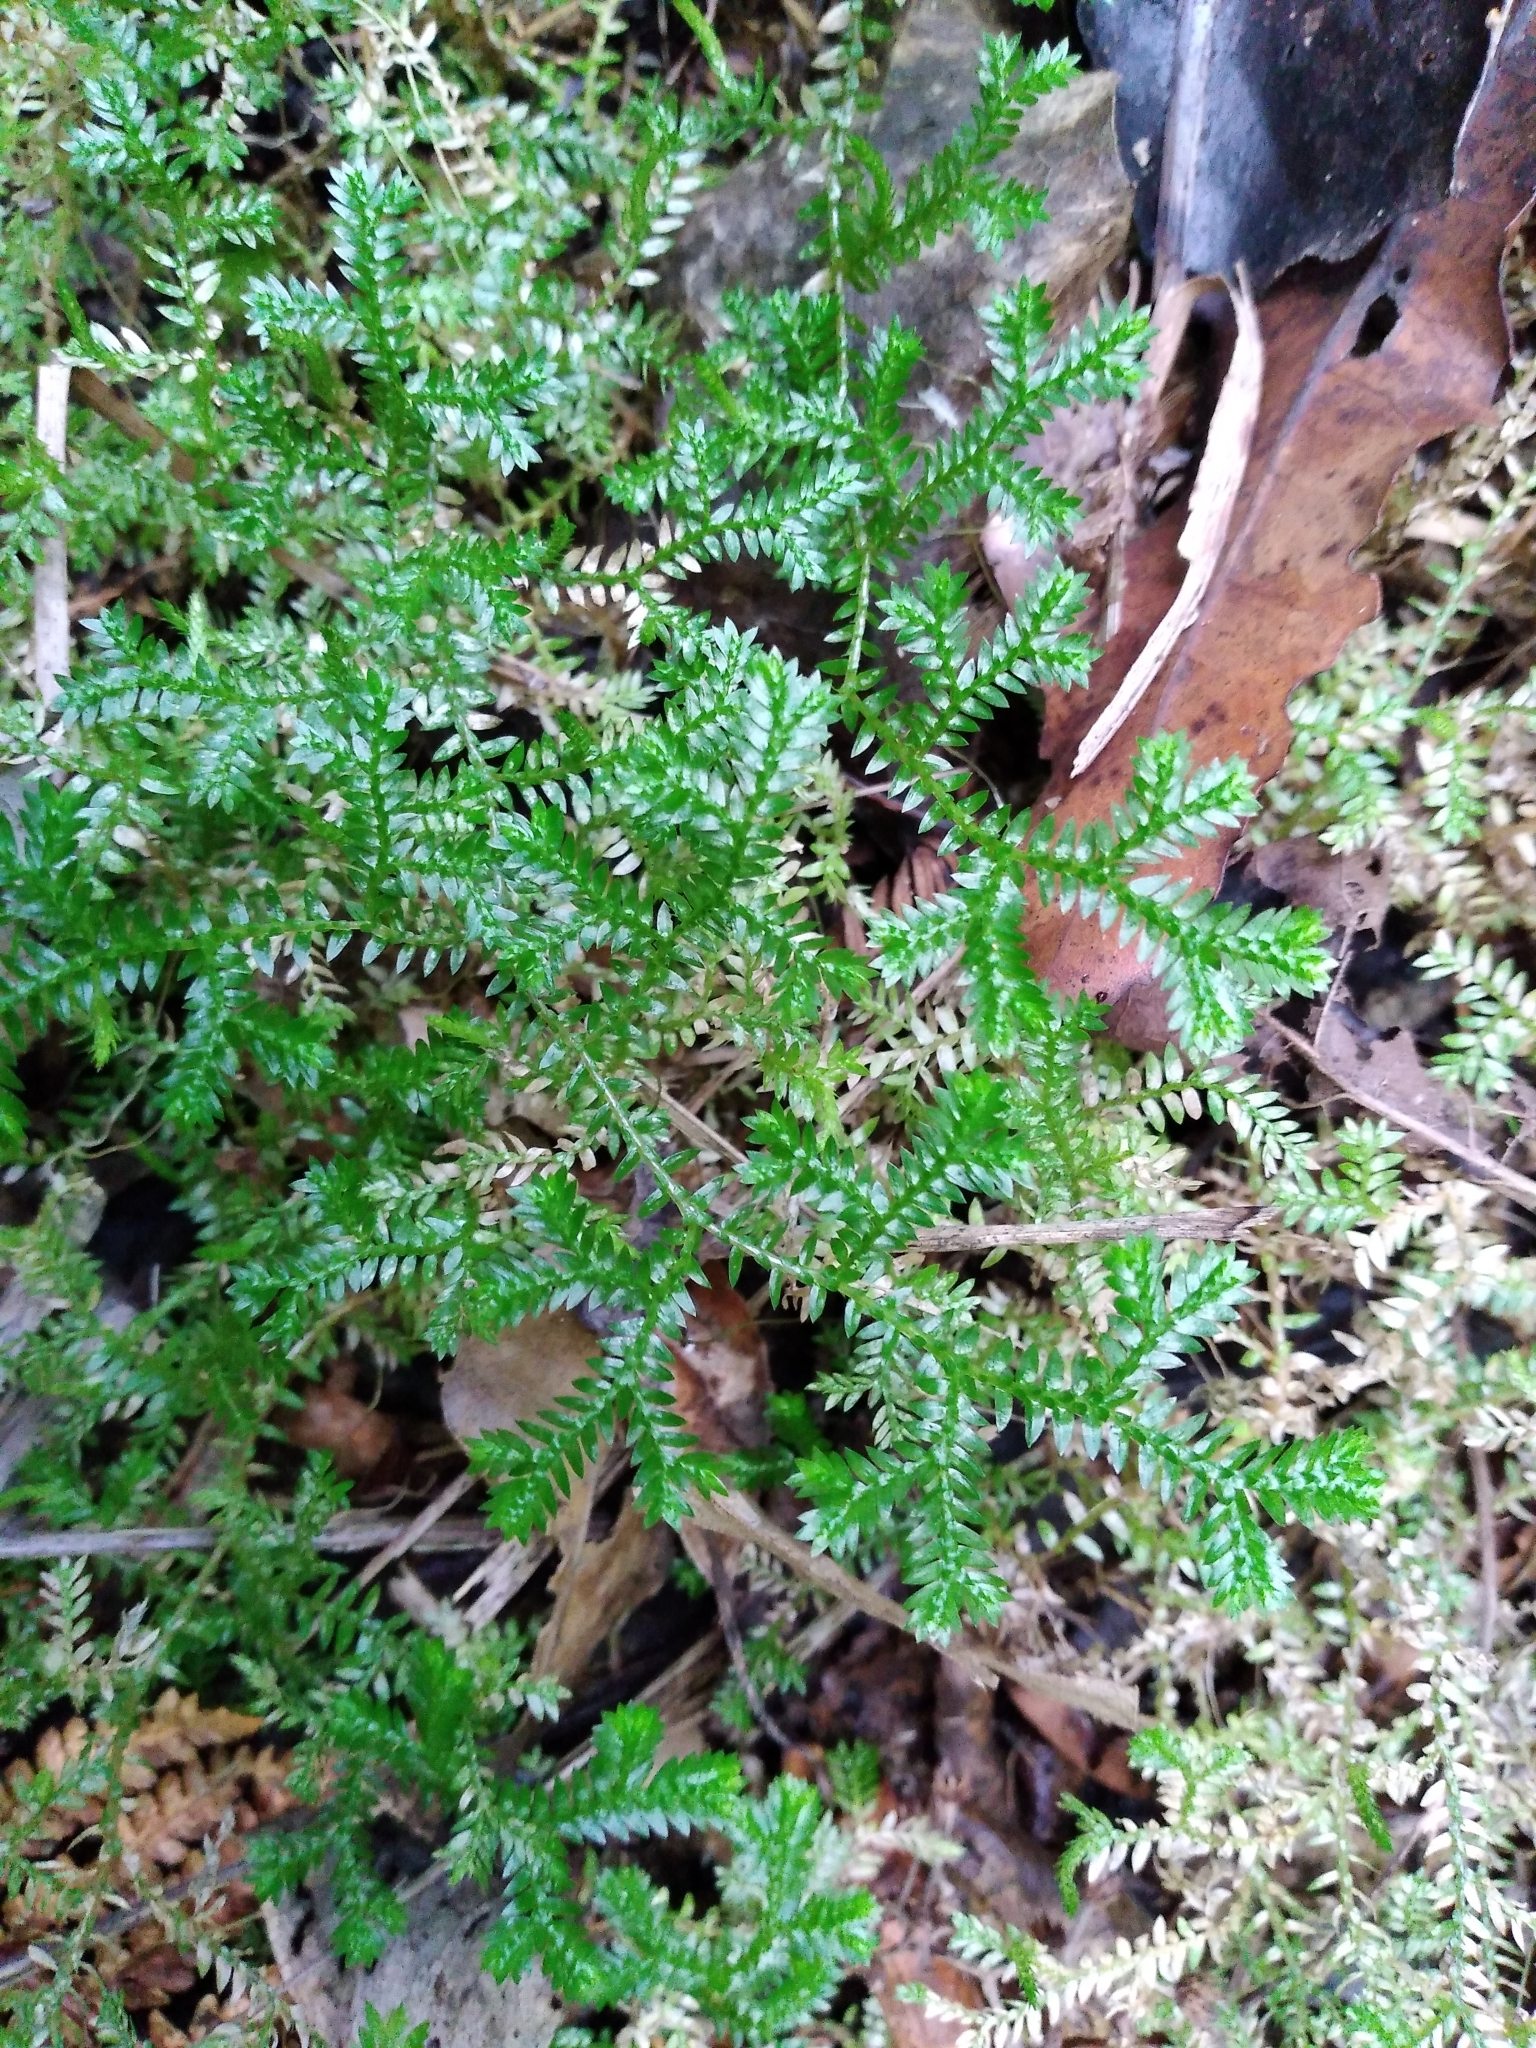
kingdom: Plantae
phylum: Tracheophyta
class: Lycopodiopsida
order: Selaginellales
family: Selaginellaceae
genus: Selaginella
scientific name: Selaginella kraussiana
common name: Krauss' spikemoss
